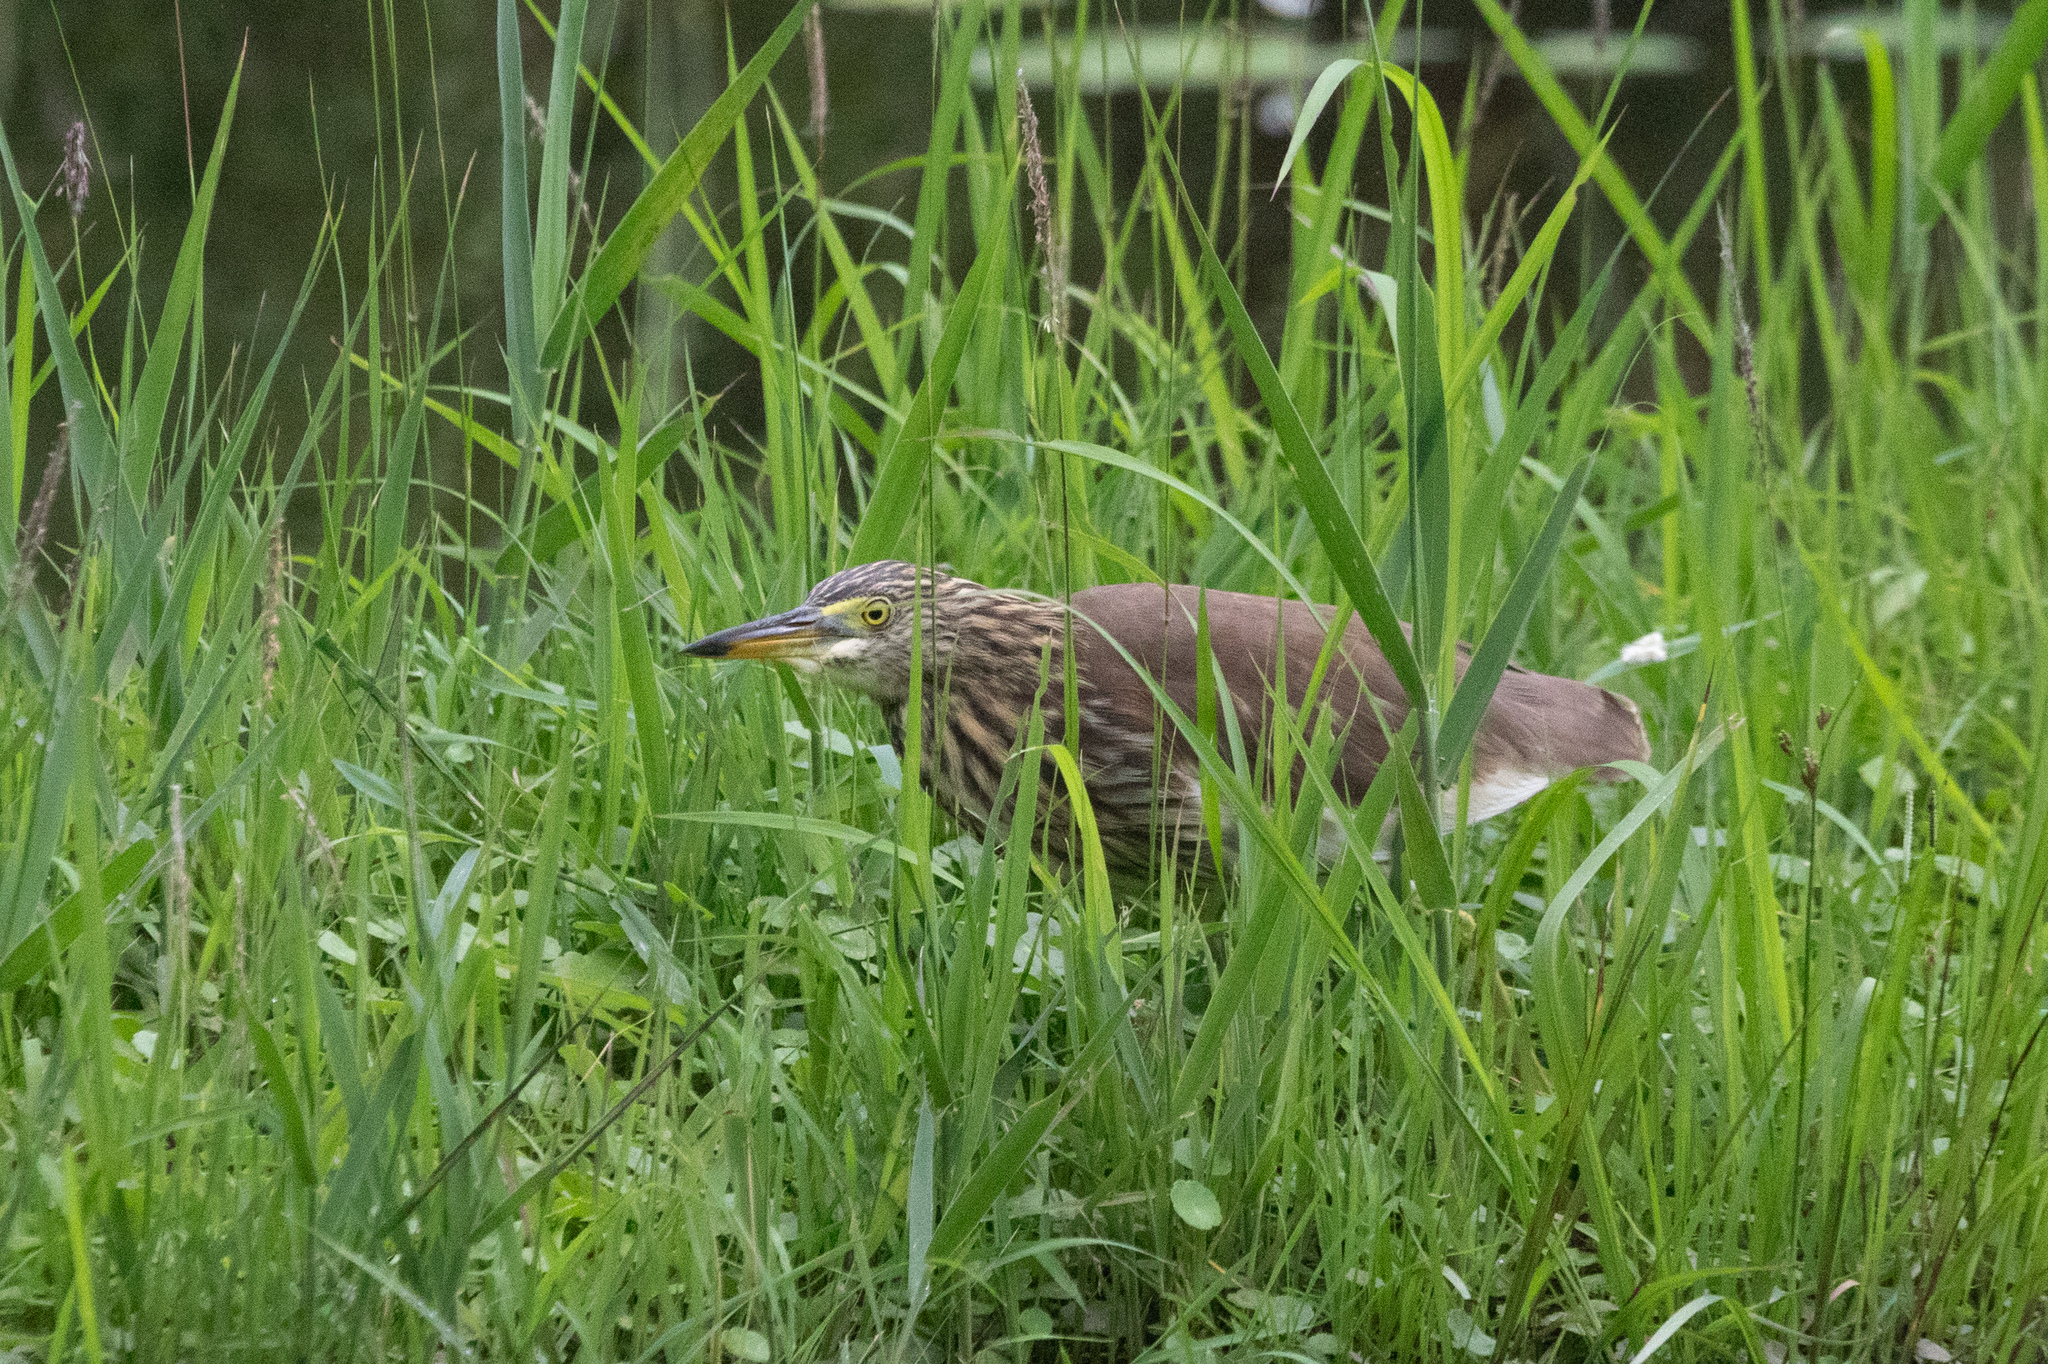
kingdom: Animalia
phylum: Chordata
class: Aves
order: Pelecaniformes
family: Ardeidae
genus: Ardeola
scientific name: Ardeola bacchus
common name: Chinese pond heron
